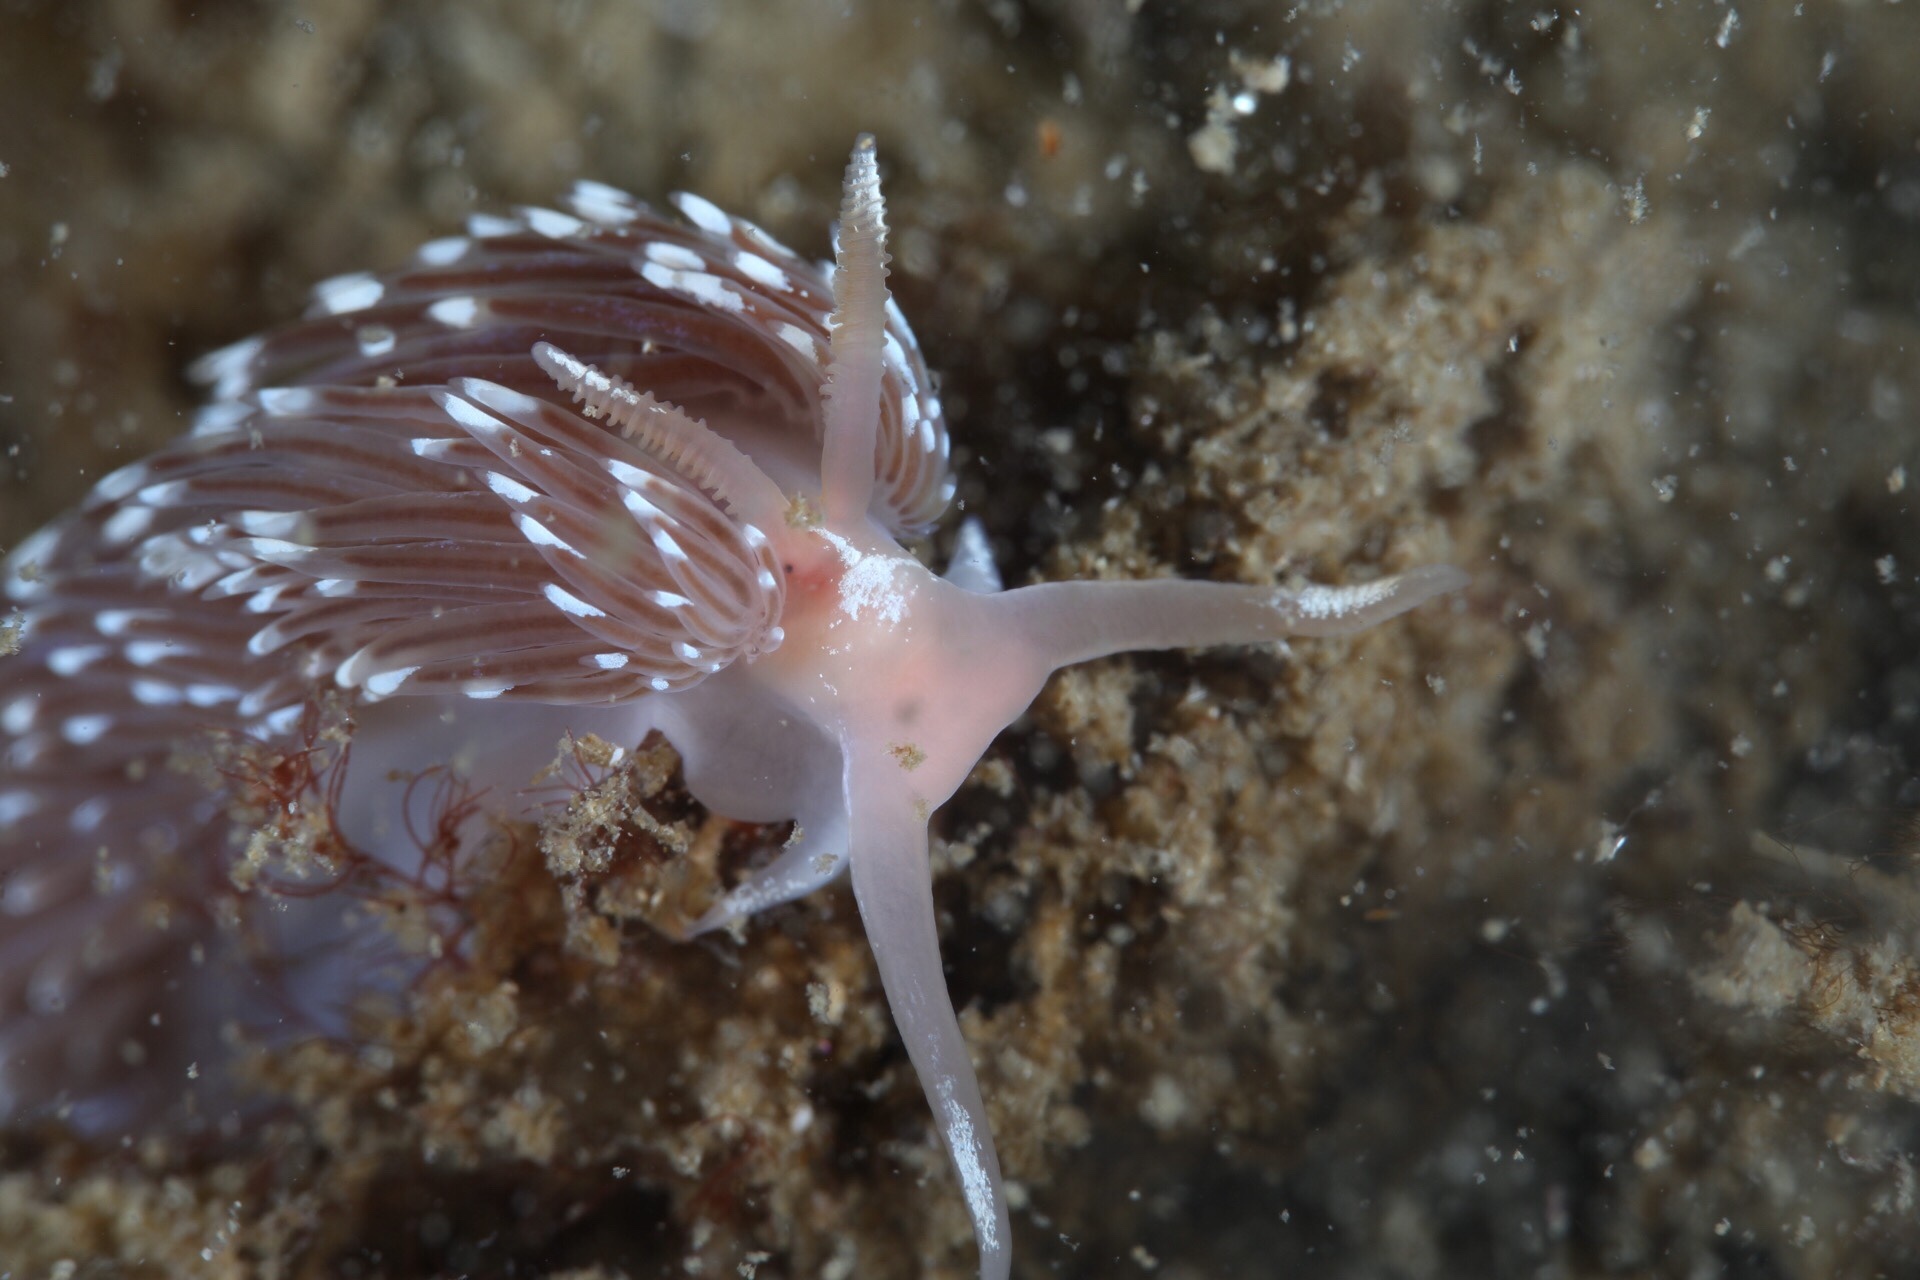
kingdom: Animalia
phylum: Mollusca
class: Gastropoda
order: Nudibranchia
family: Facelinidae
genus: Facelina
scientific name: Facelina bostoniensis
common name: Boston facelina
